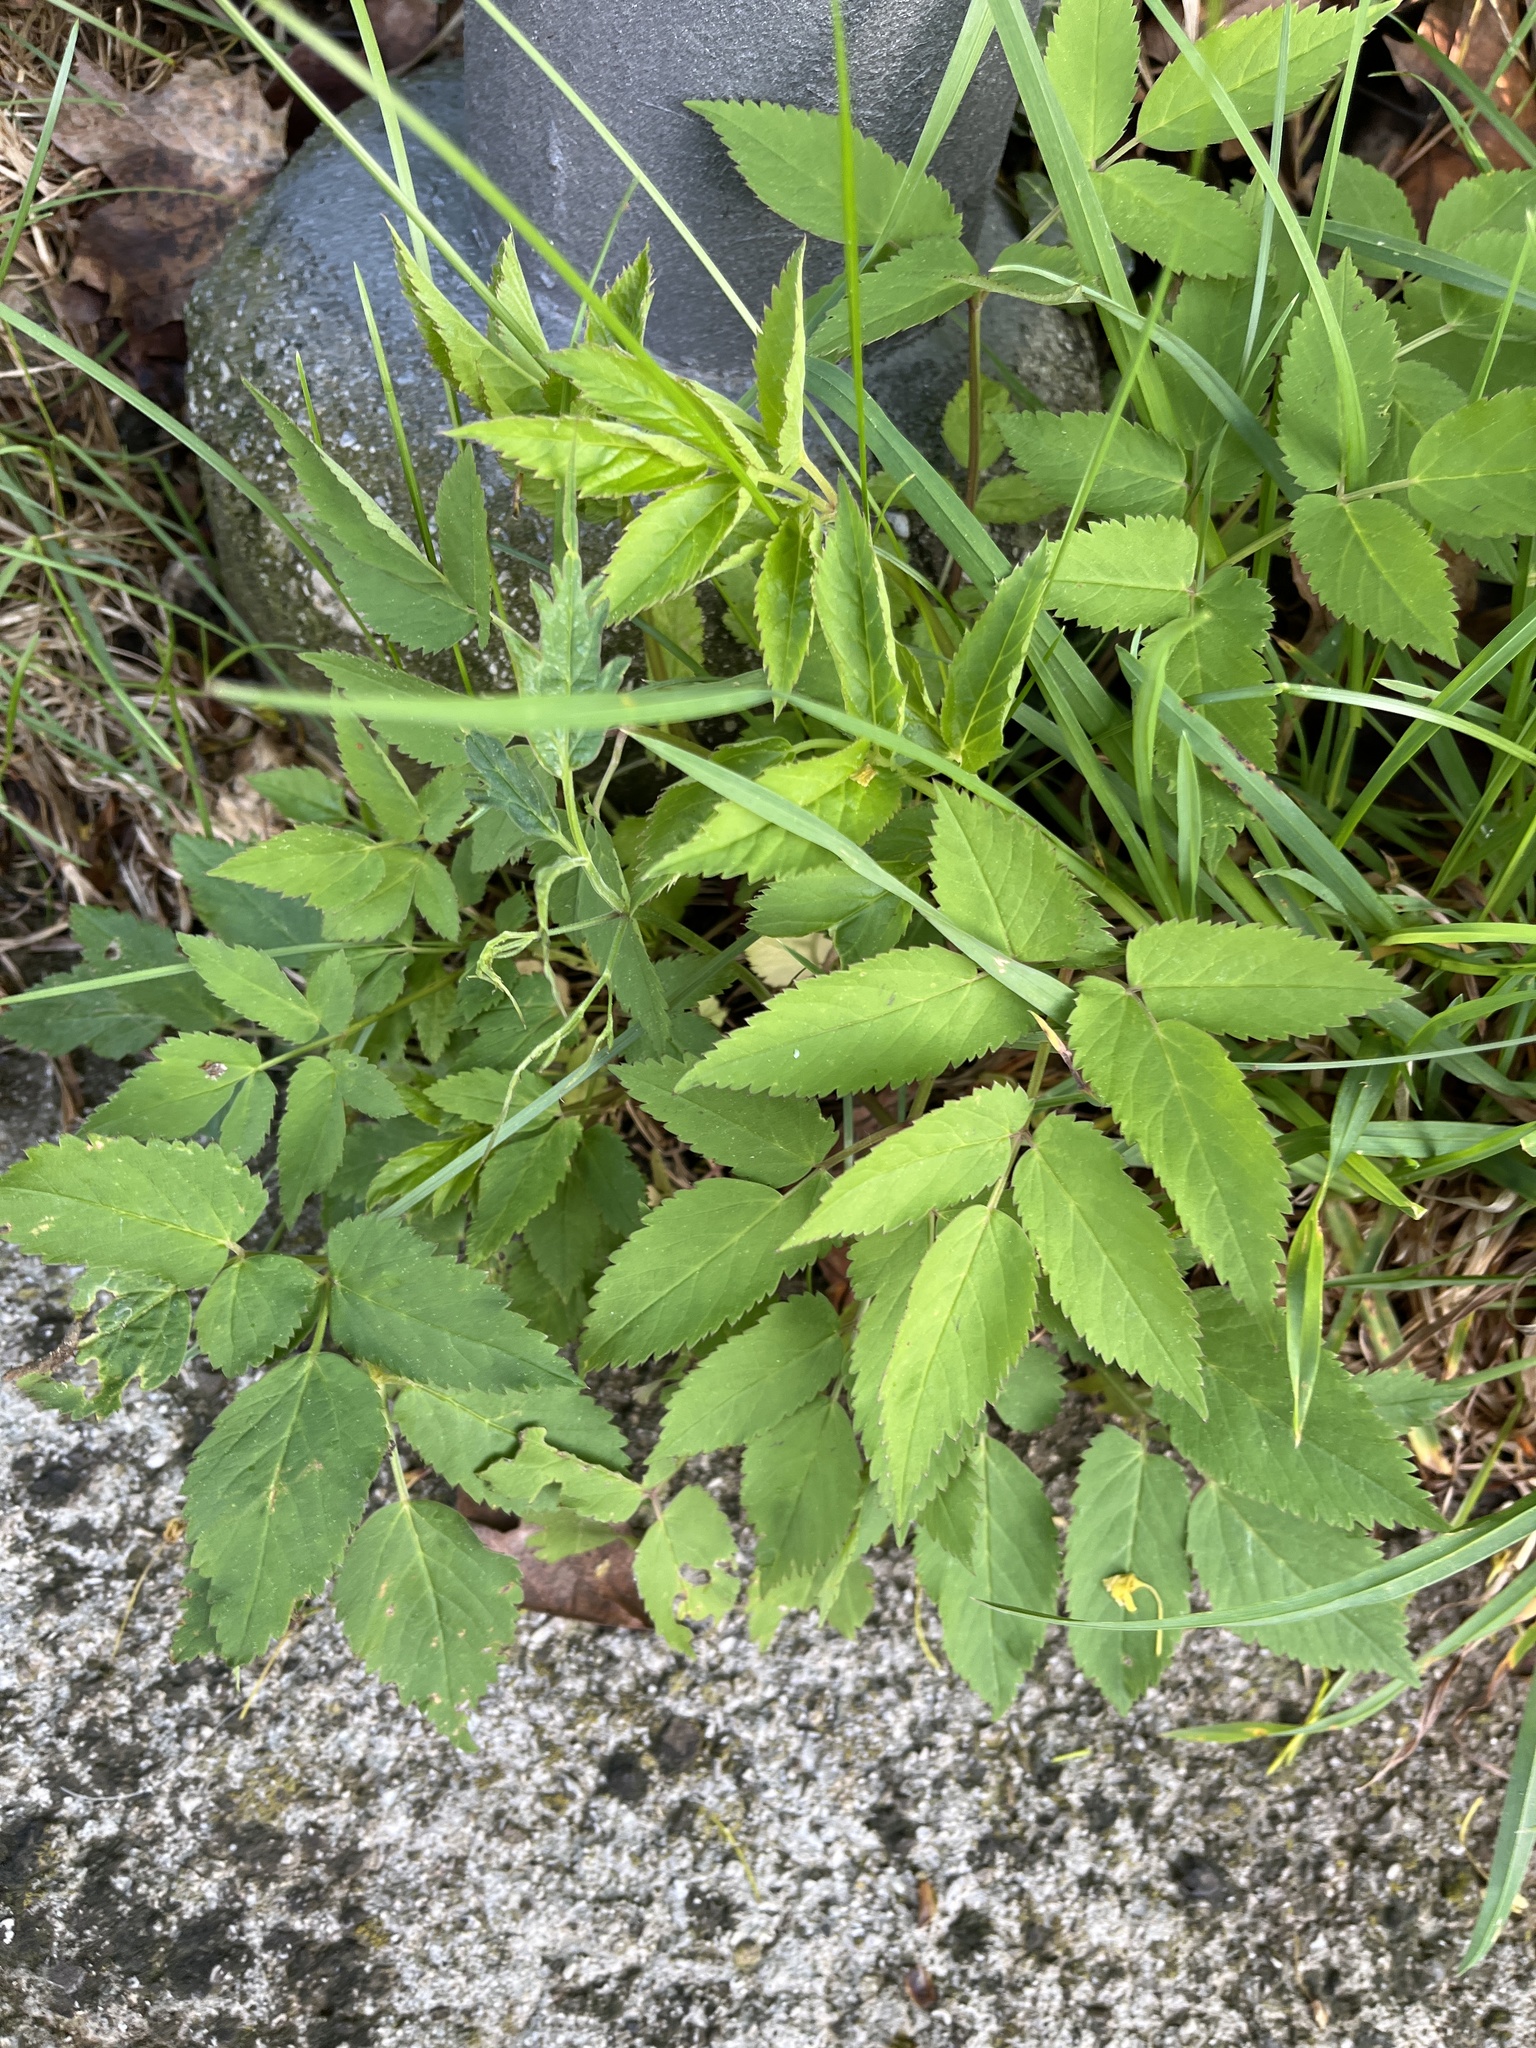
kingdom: Plantae
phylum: Tracheophyta
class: Magnoliopsida
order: Apiales
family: Apiaceae
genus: Aegopodium
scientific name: Aegopodium podagraria
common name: Ground-elder
